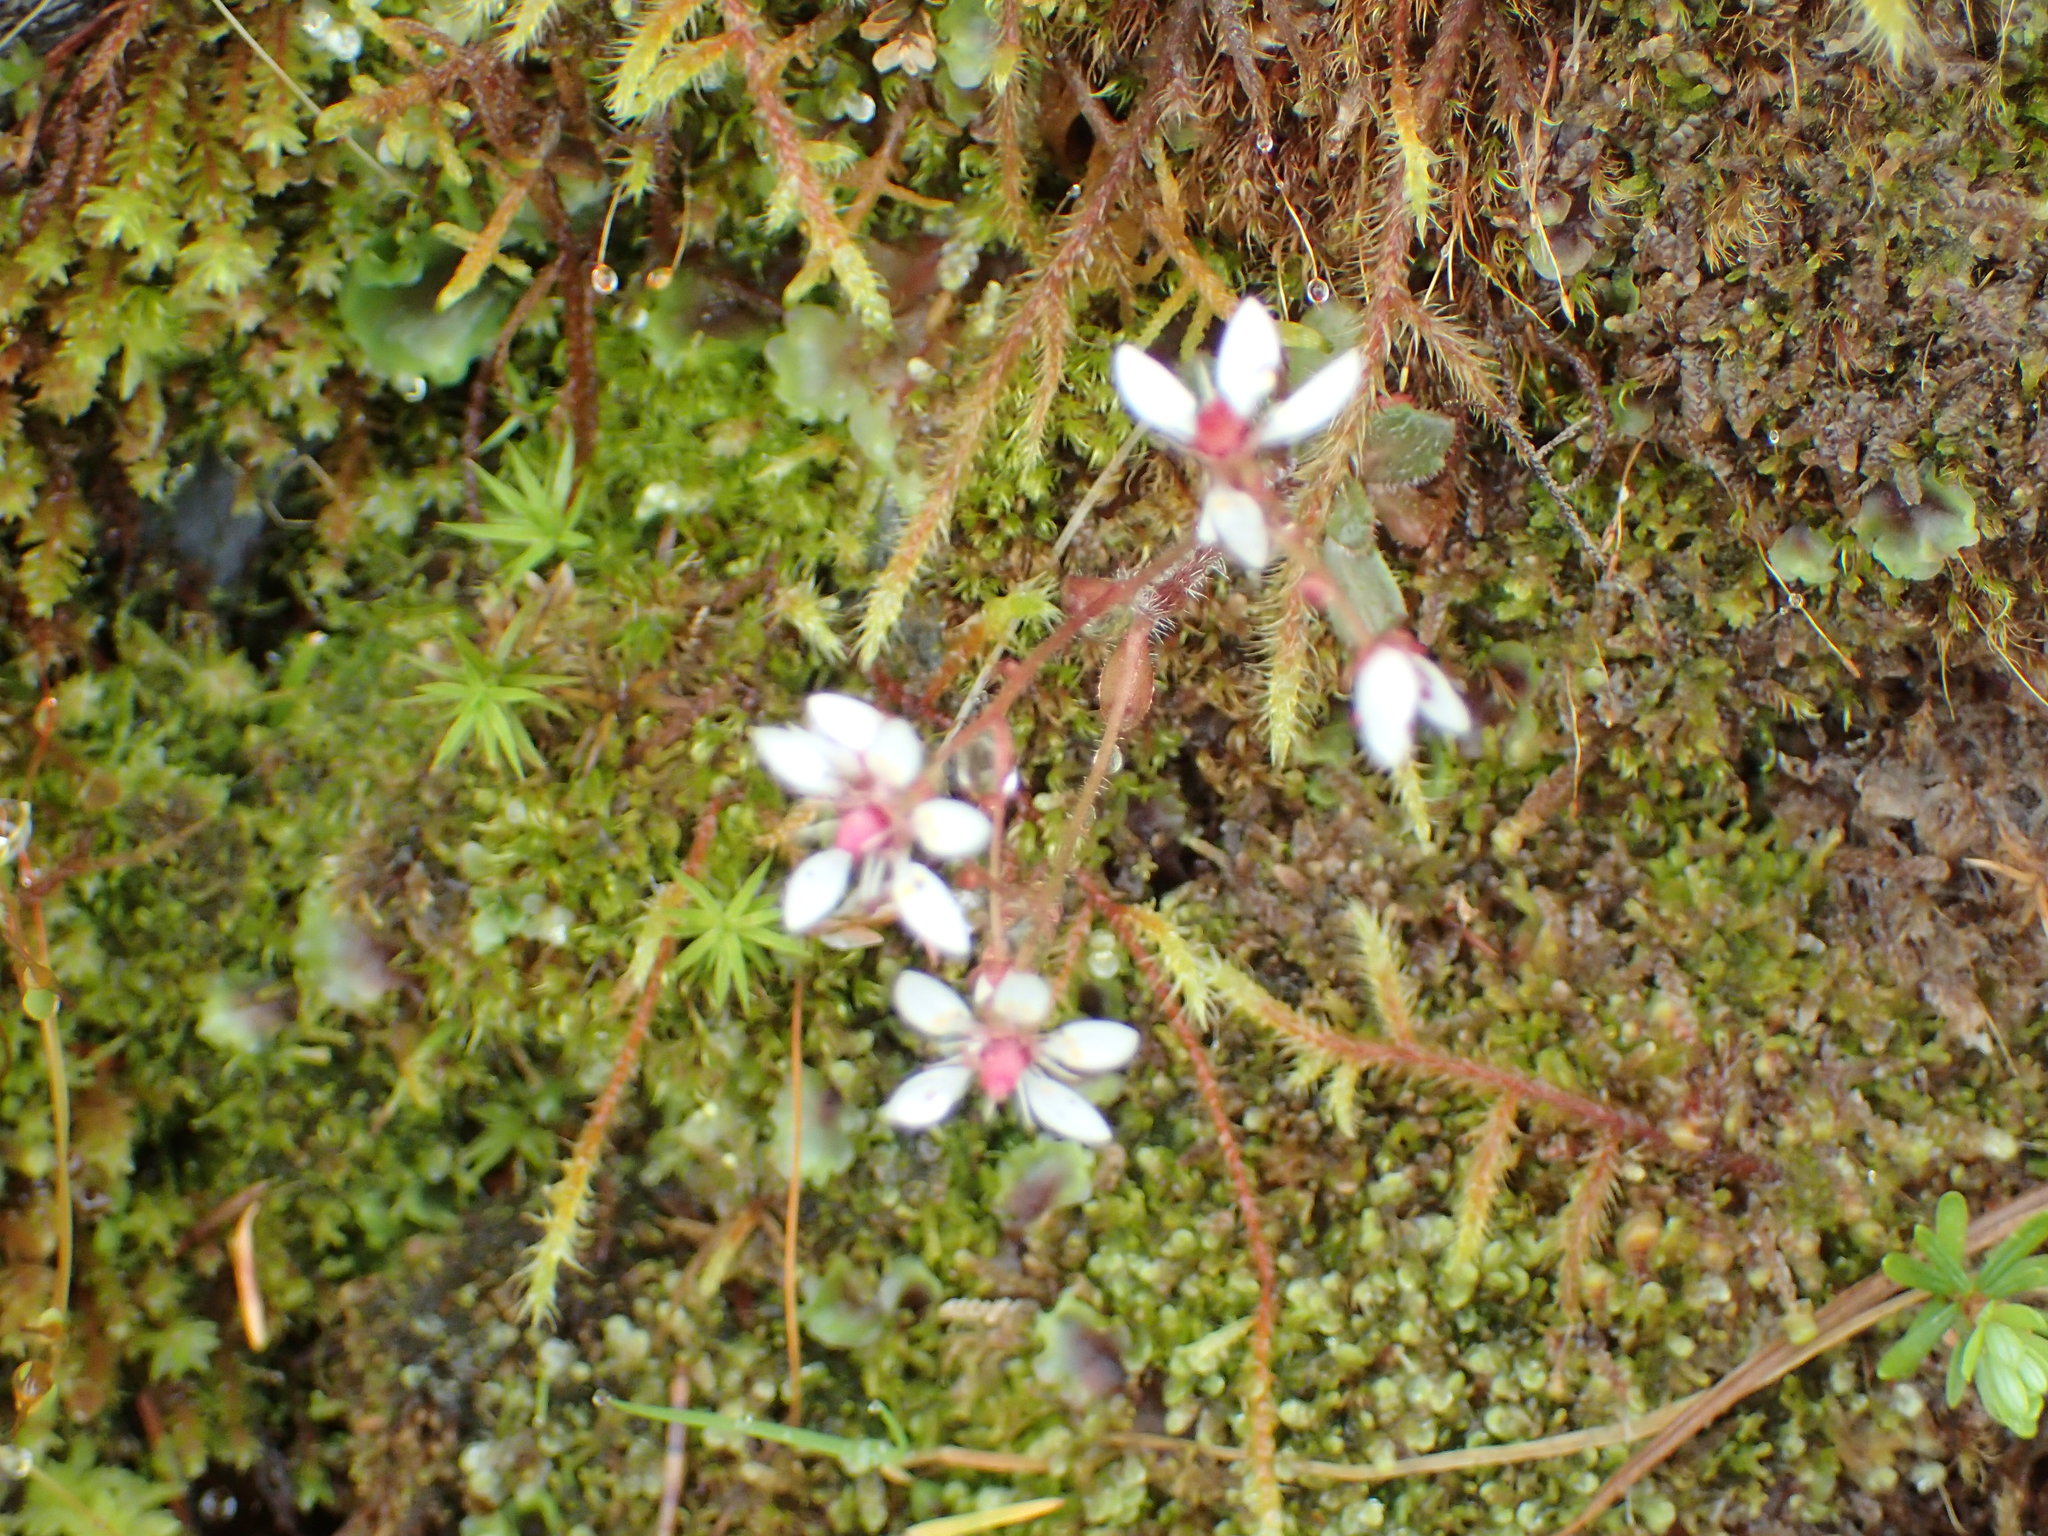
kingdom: Plantae
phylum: Tracheophyta
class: Magnoliopsida
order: Saxifragales
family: Saxifragaceae
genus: Micranthes
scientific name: Micranthes ferruginea
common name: Rusty saxifrage
